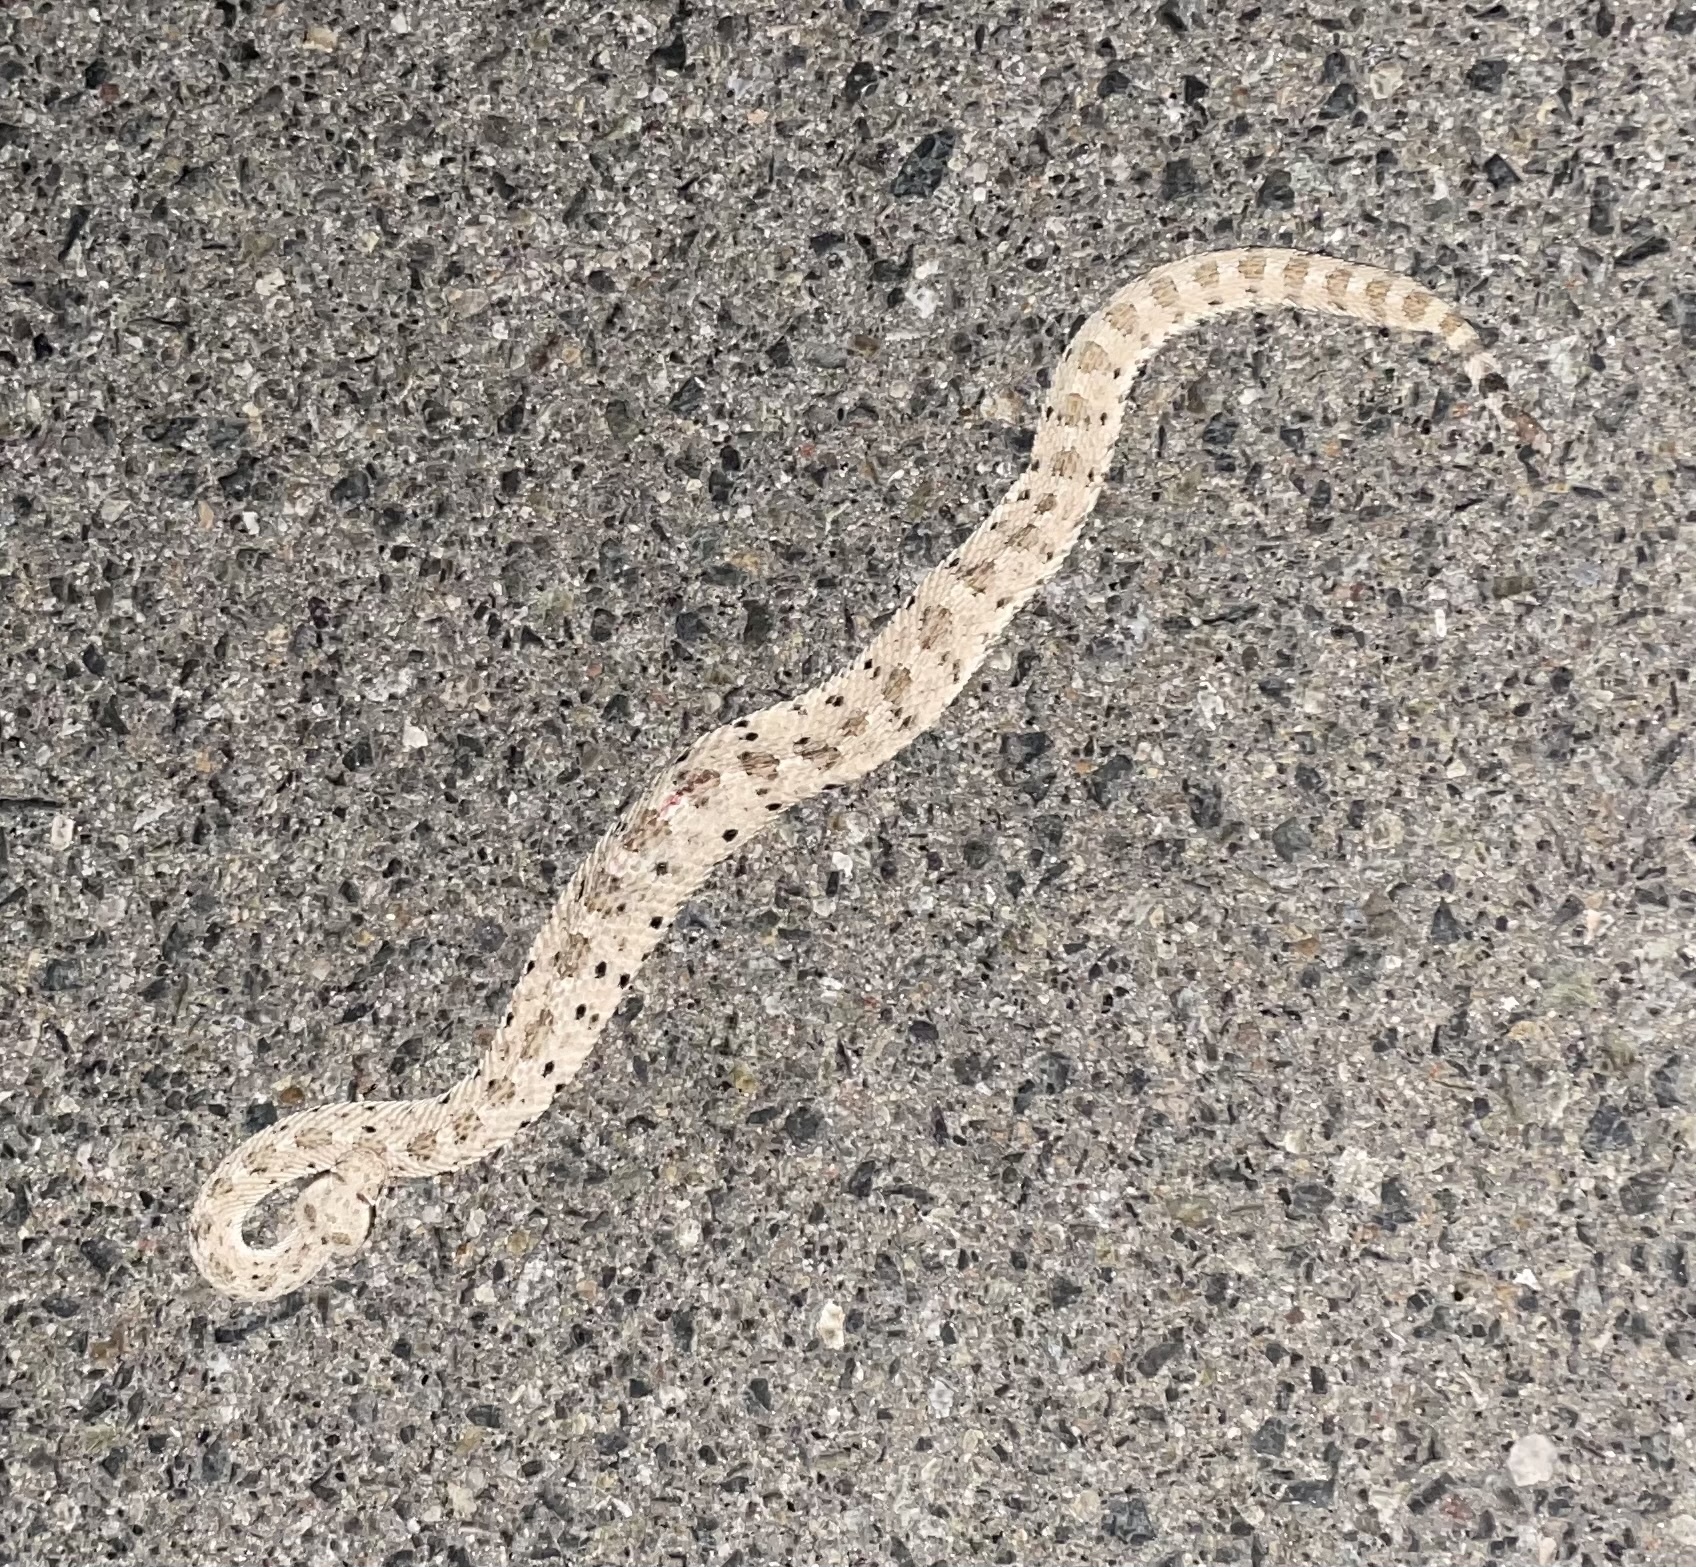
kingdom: Animalia
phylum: Chordata
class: Squamata
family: Viperidae
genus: Crotalus
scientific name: Crotalus cerastes
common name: Sidewinder
